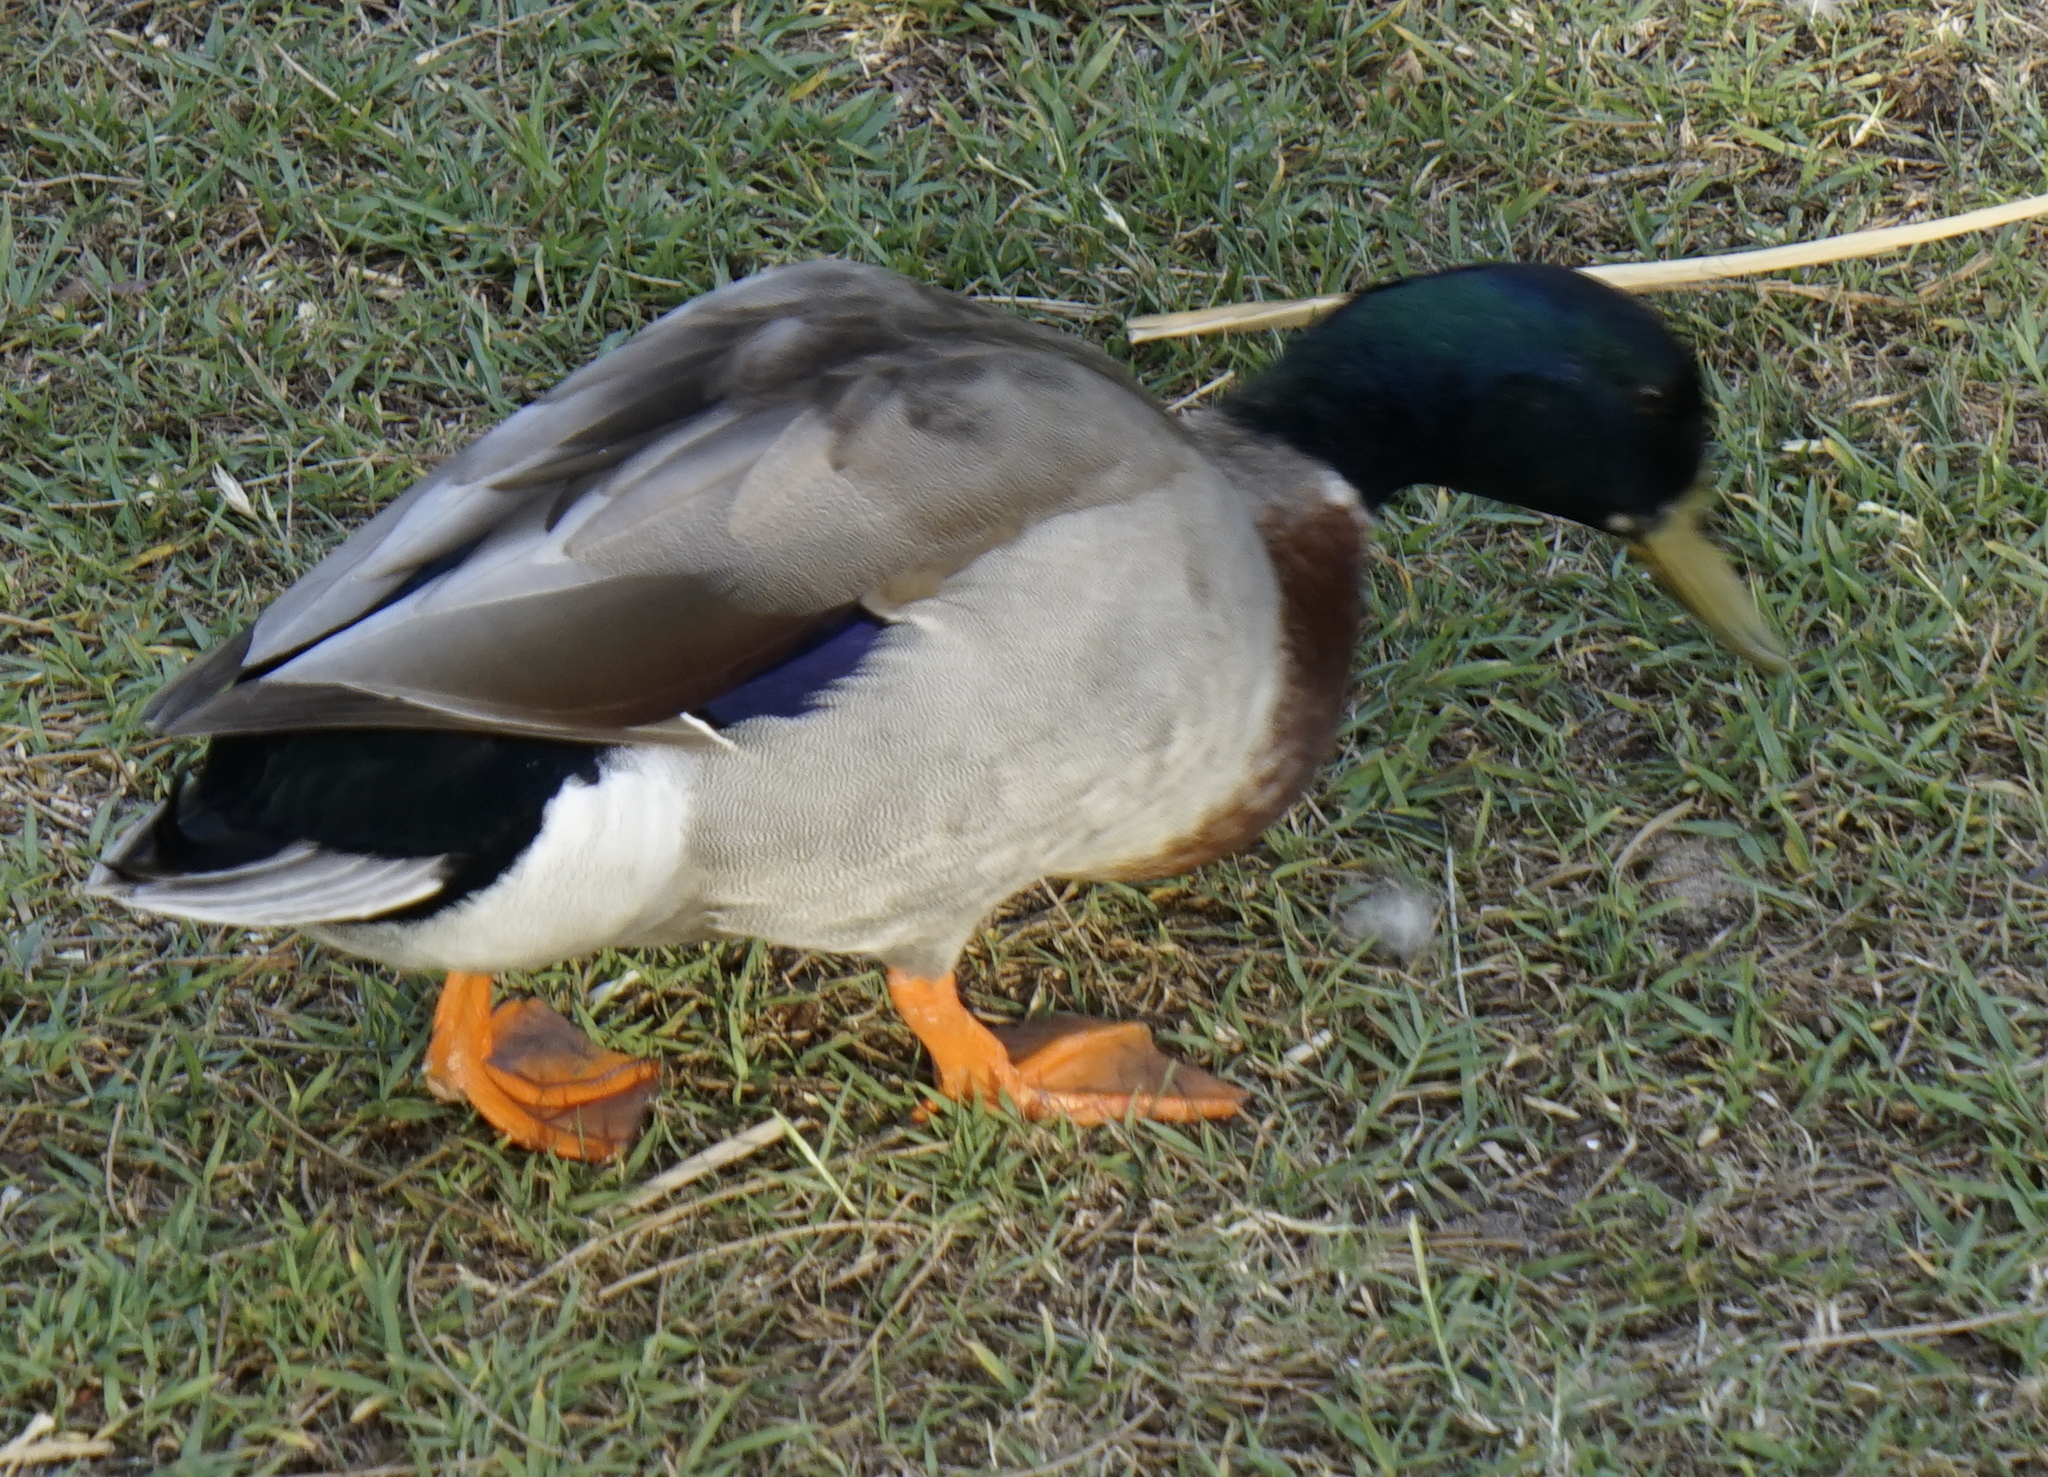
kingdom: Animalia
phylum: Chordata
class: Aves
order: Anseriformes
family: Anatidae
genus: Anas
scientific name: Anas platyrhynchos
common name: Mallard
